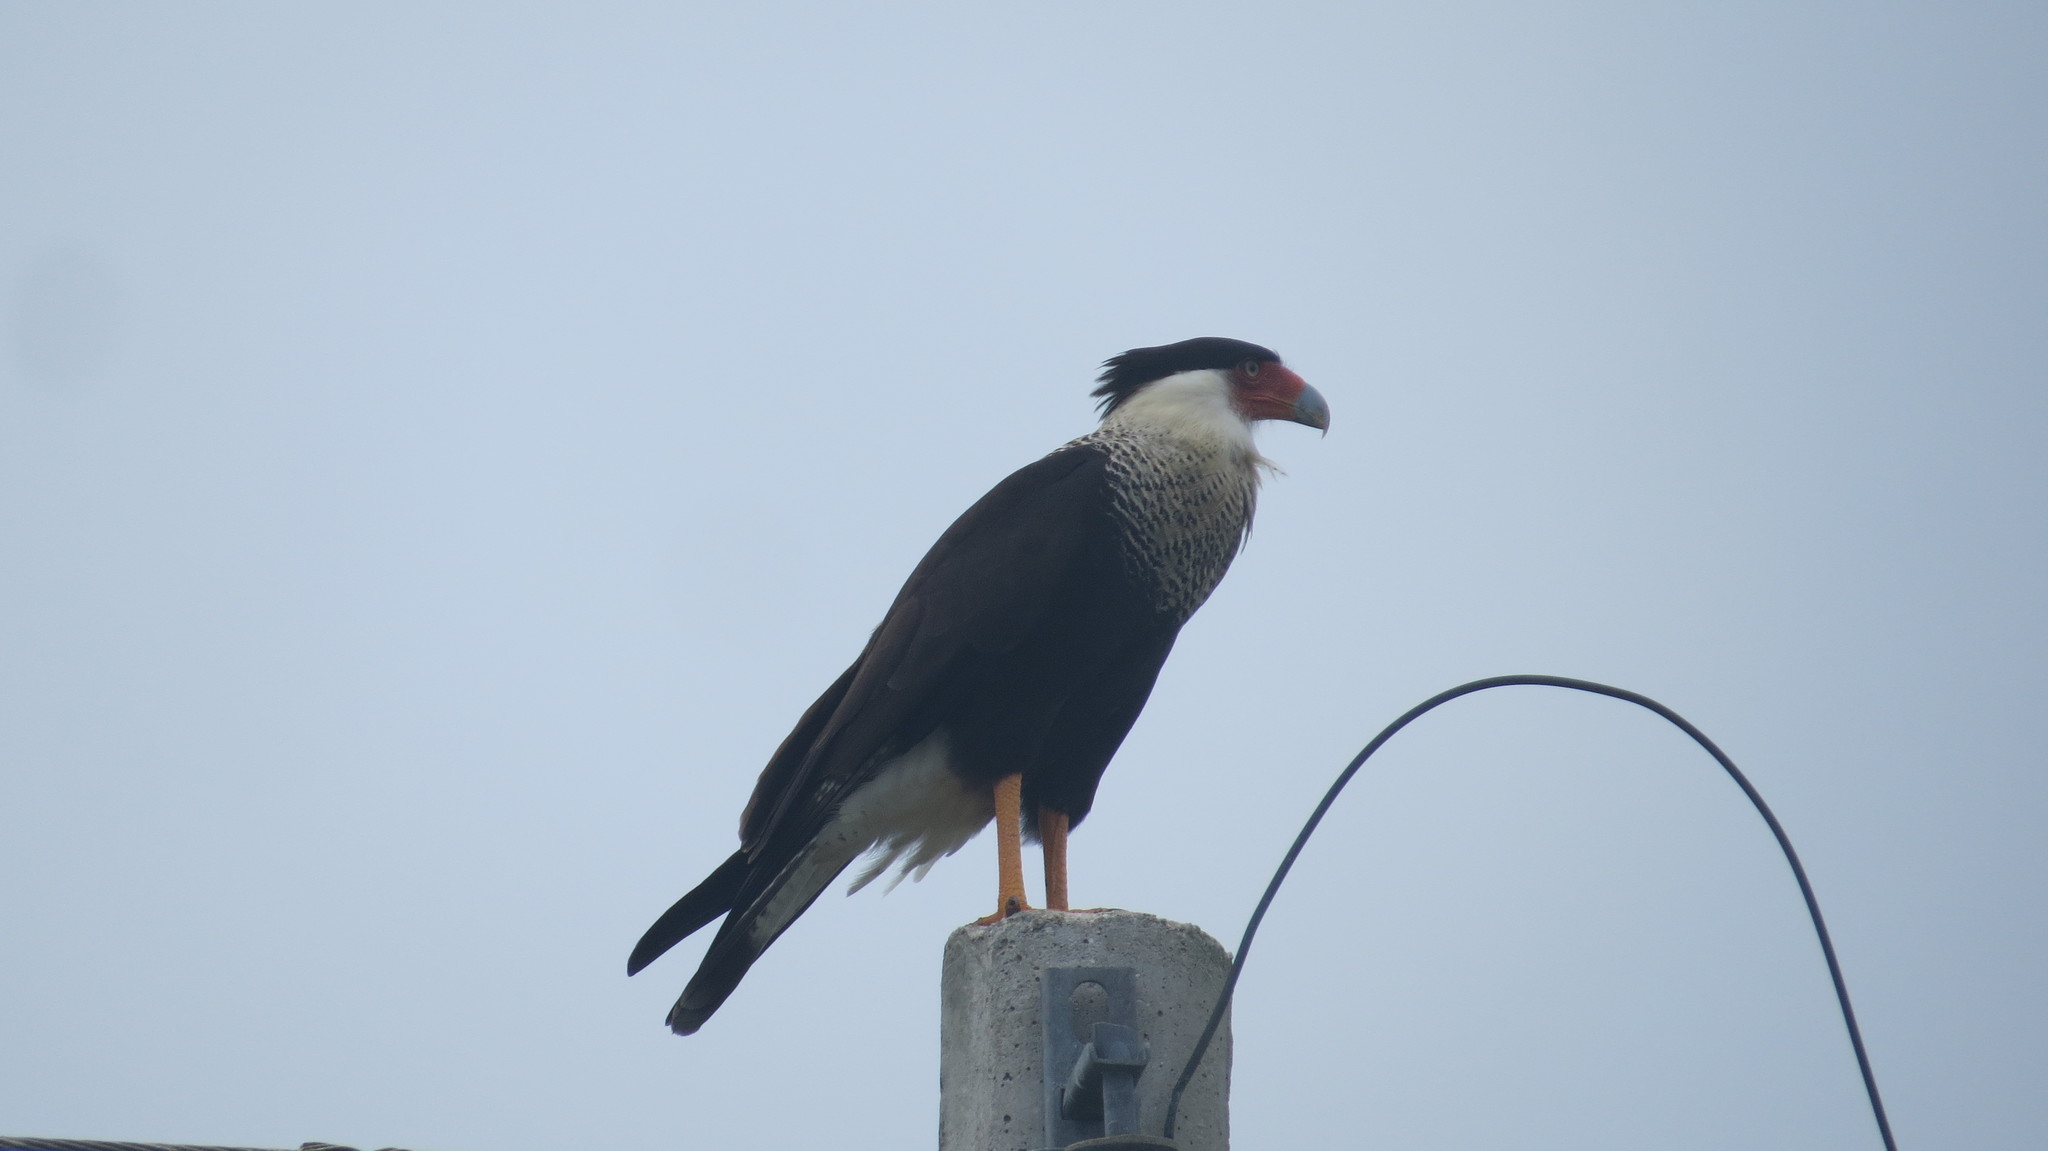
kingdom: Animalia
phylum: Chordata
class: Aves
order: Falconiformes
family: Falconidae
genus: Caracara
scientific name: Caracara plancus
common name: Southern caracara
